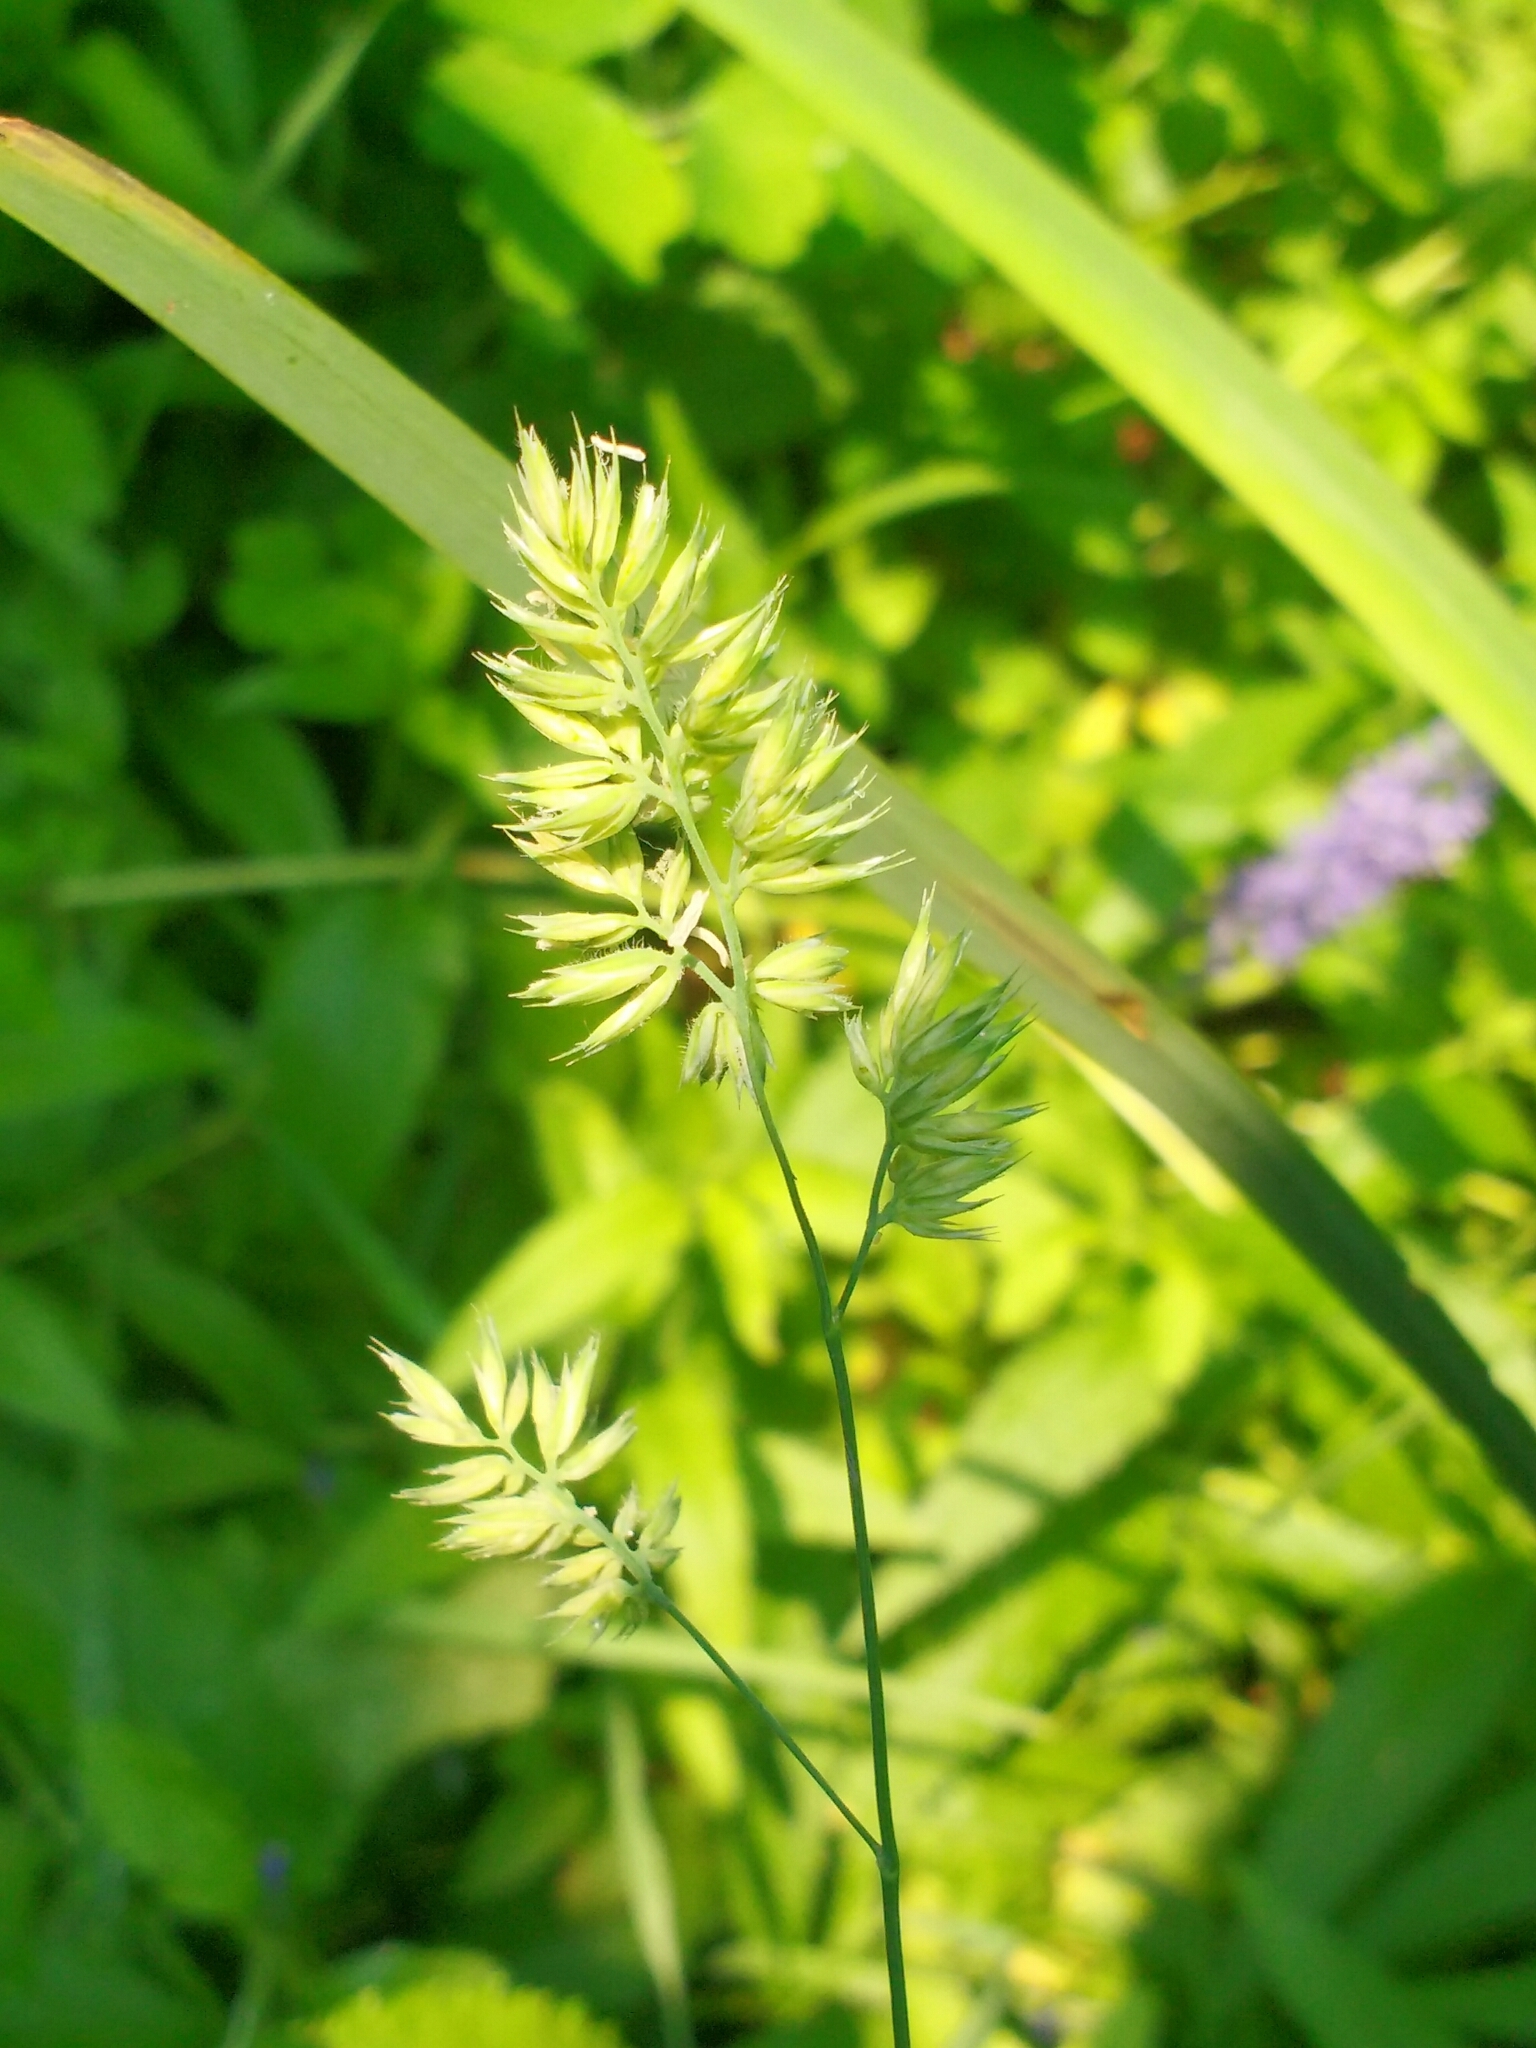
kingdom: Plantae
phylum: Tracheophyta
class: Liliopsida
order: Poales
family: Poaceae
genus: Dactylis
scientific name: Dactylis glomerata
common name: Orchardgrass
